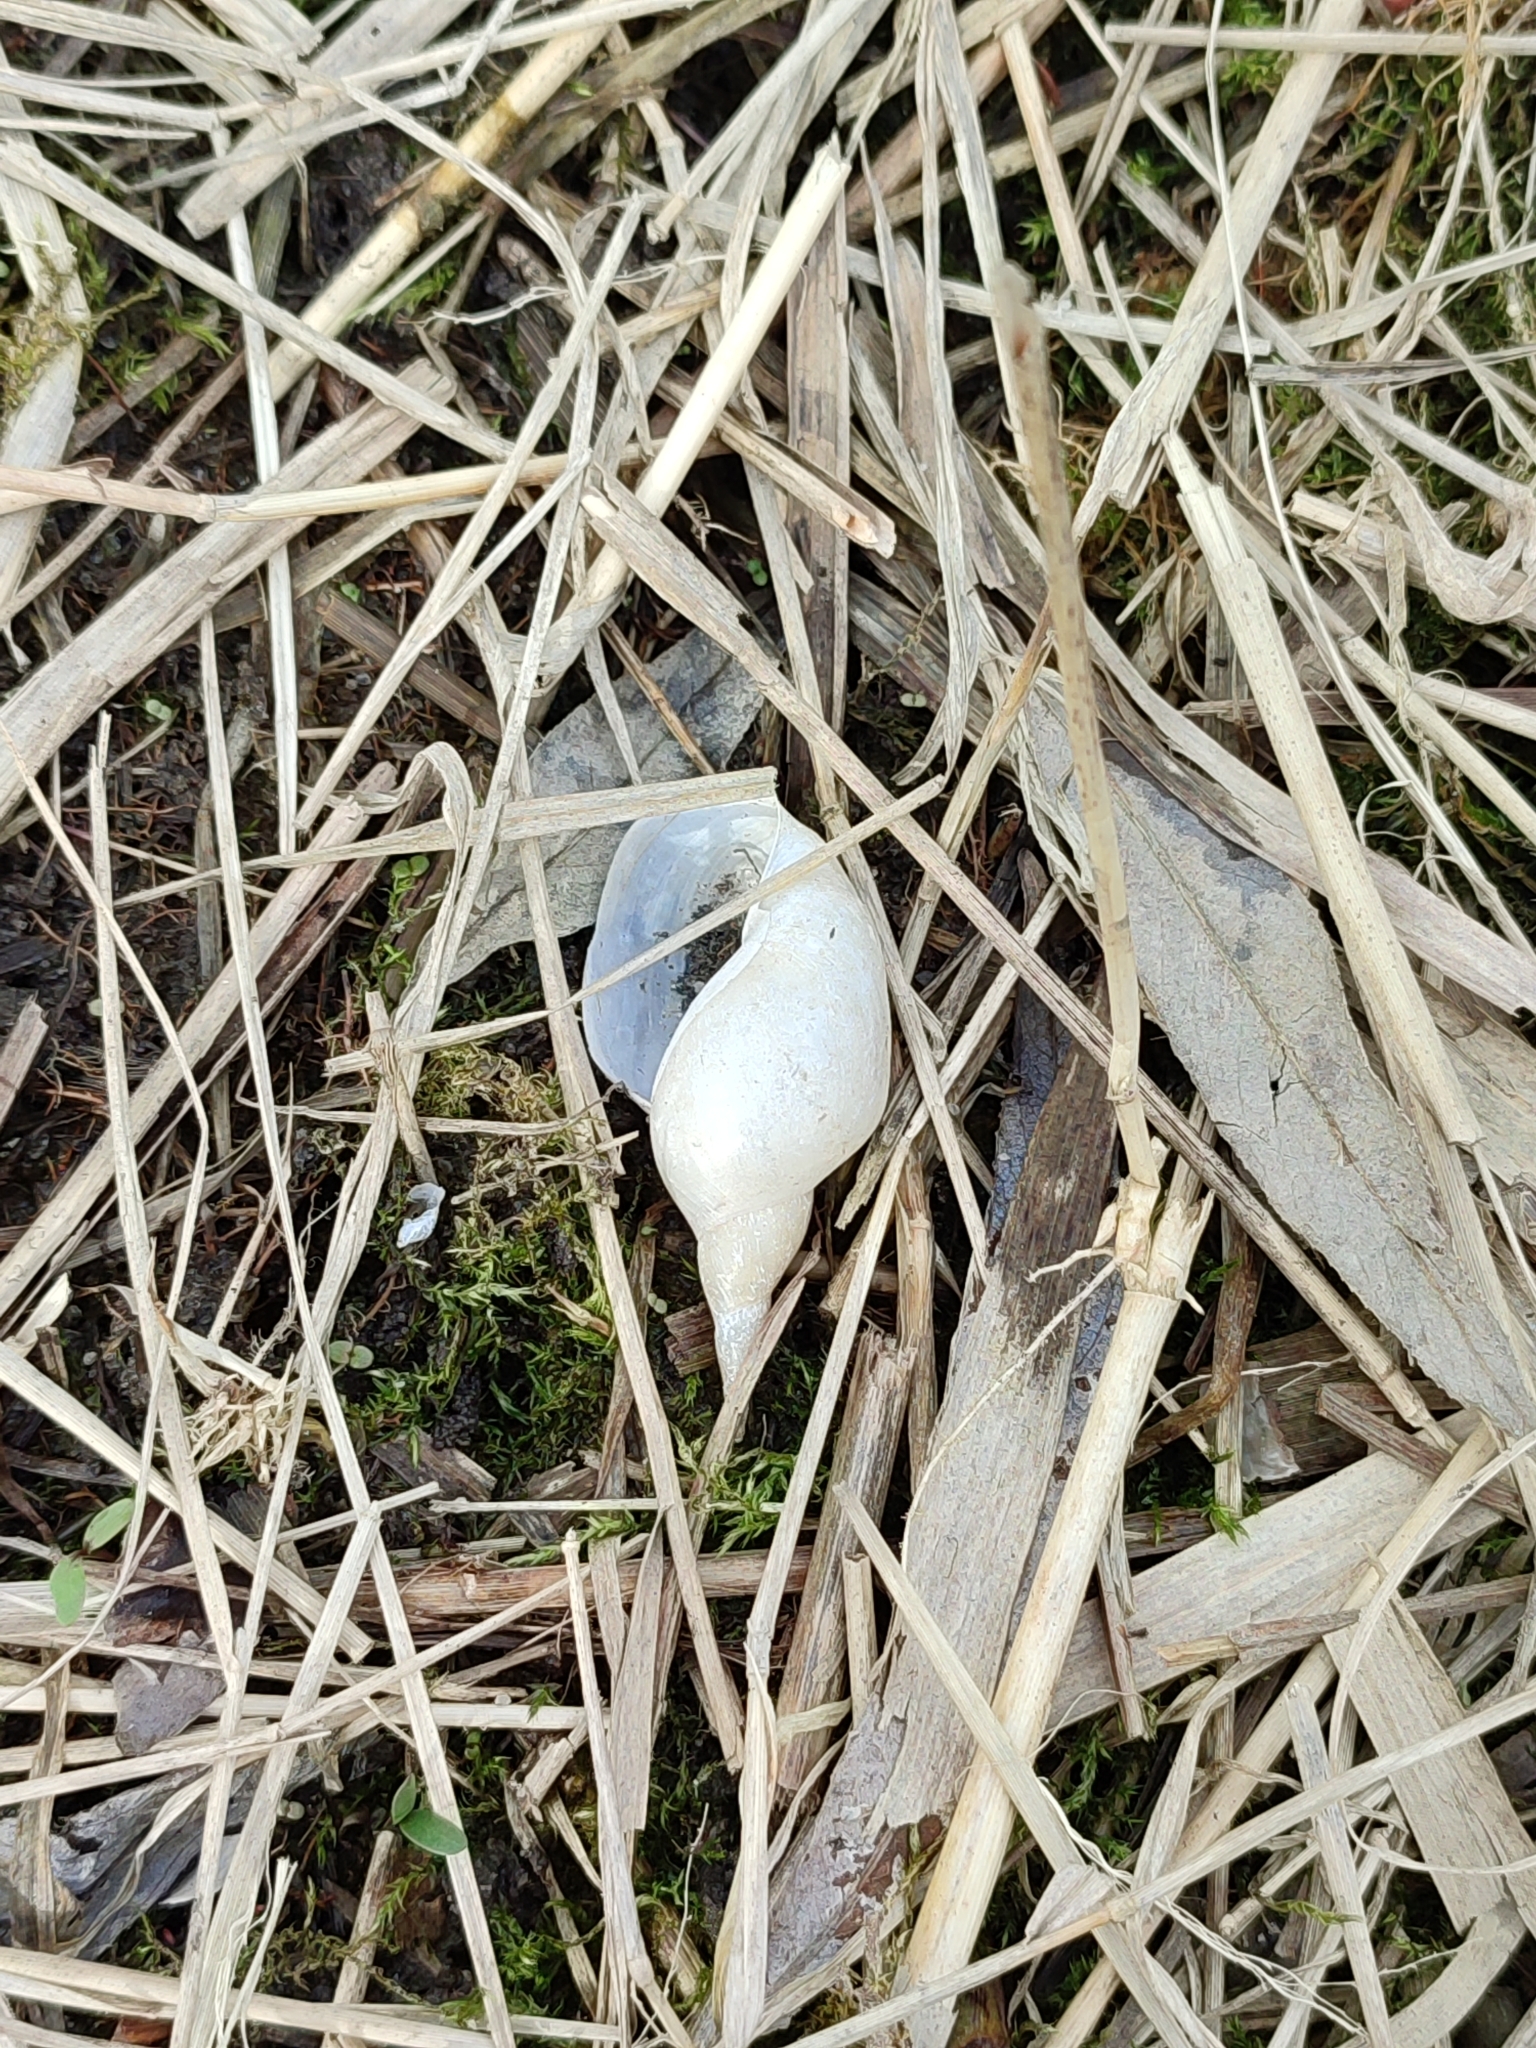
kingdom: Animalia
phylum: Mollusca
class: Gastropoda
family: Lymnaeidae
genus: Lymnaea
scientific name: Lymnaea stagnalis
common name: Great pond snail
